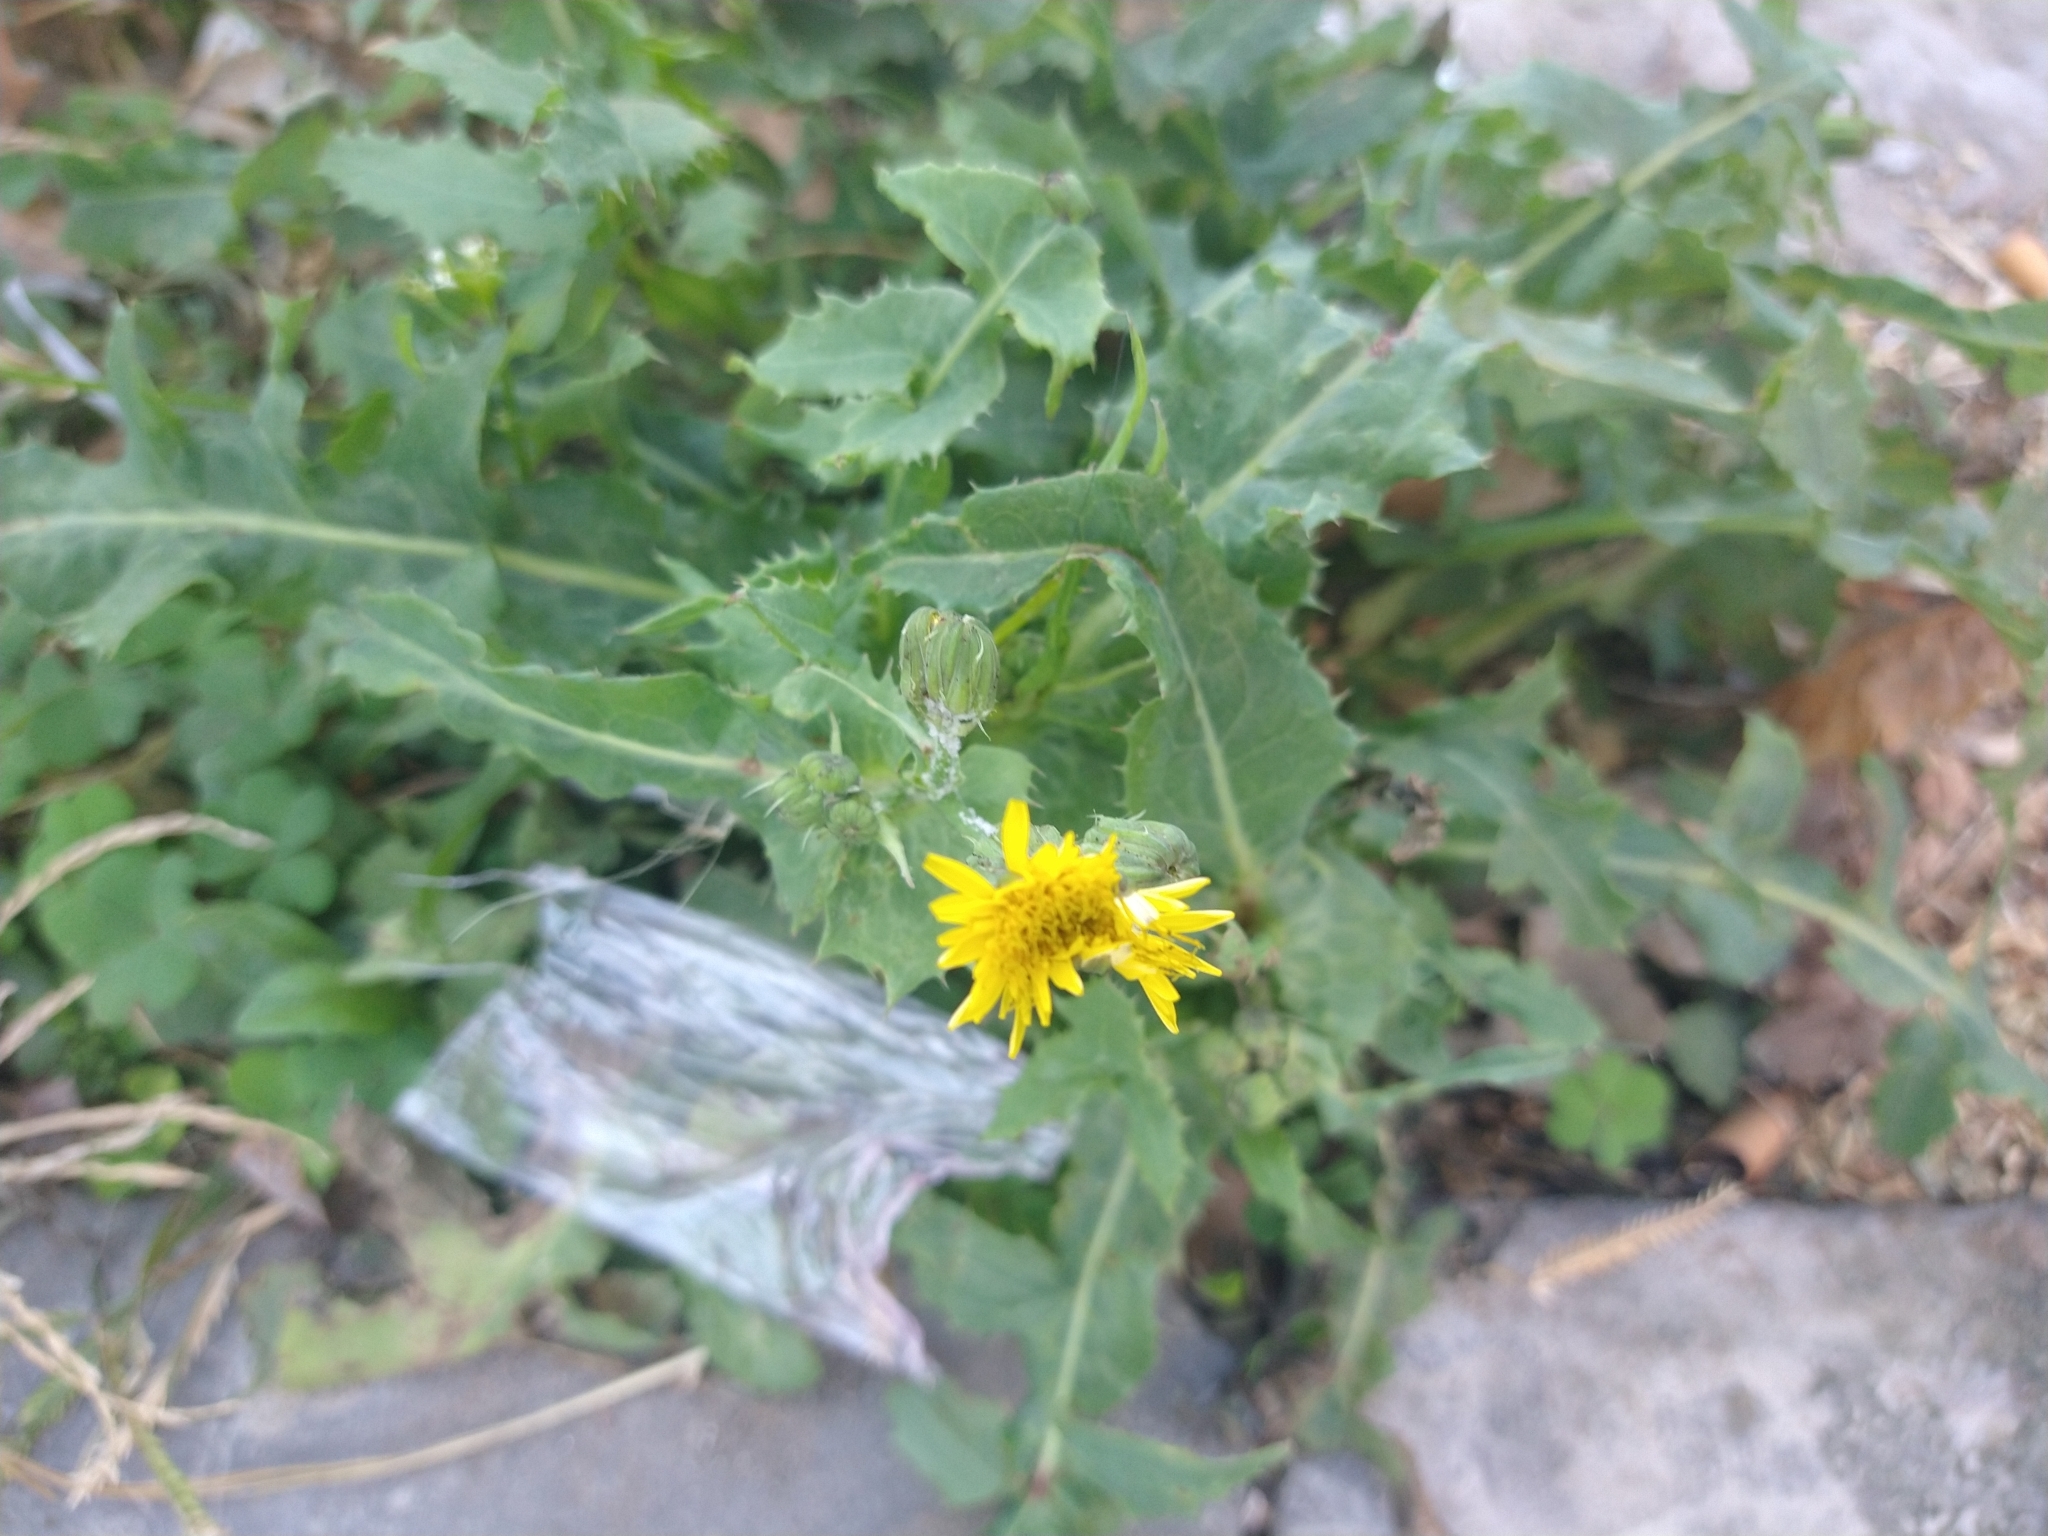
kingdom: Plantae
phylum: Tracheophyta
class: Magnoliopsida
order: Asterales
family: Asteraceae
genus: Sonchus
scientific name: Sonchus oleraceus
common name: Common sowthistle
